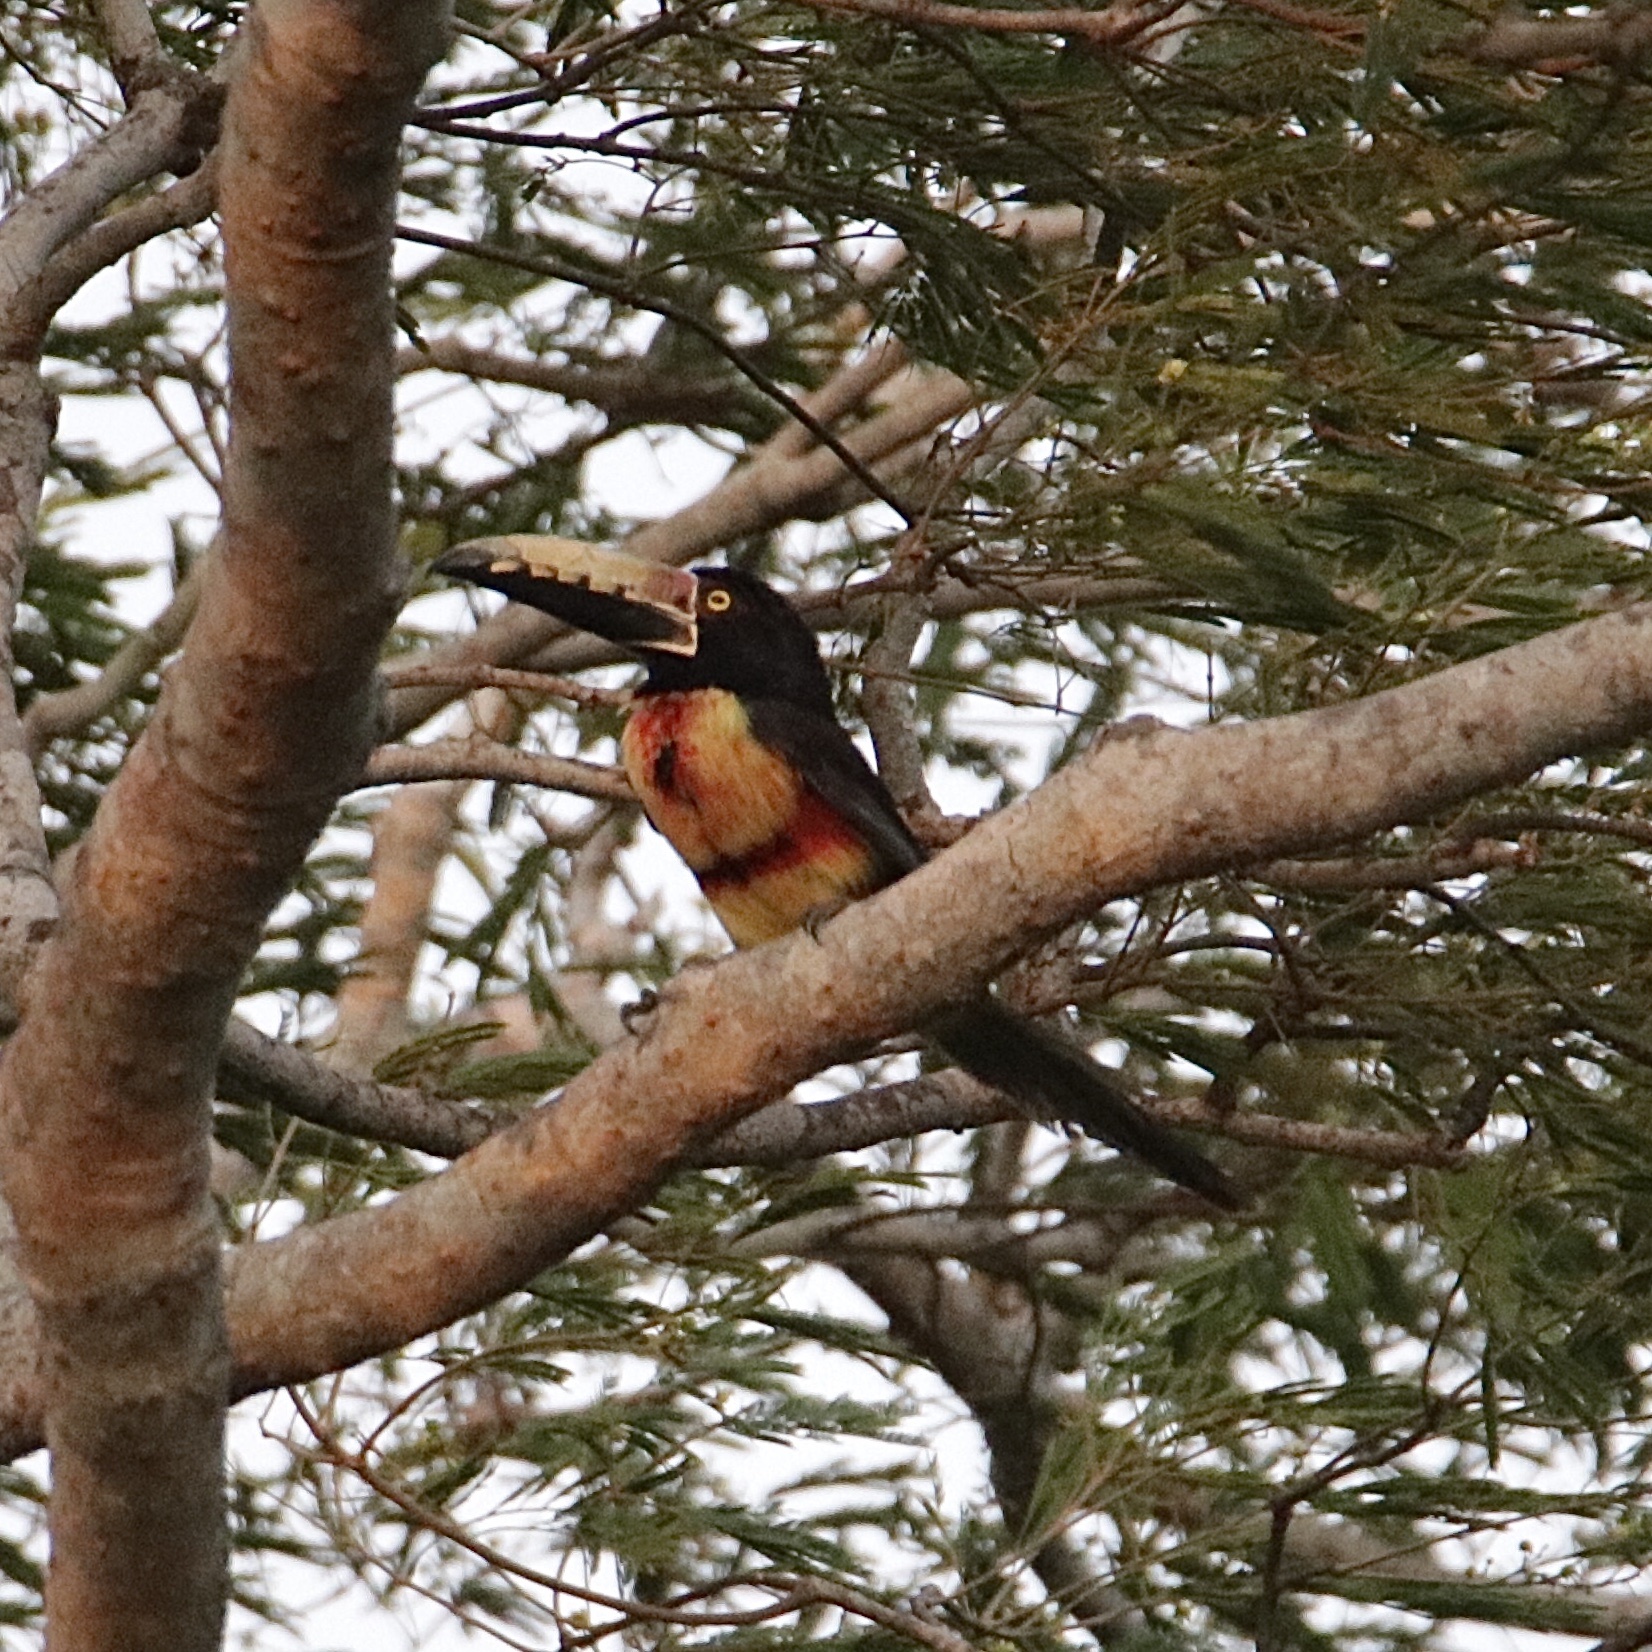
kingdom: Animalia
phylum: Chordata
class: Aves
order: Piciformes
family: Ramphastidae
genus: Pteroglossus
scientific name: Pteroglossus torquatus
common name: Collared aracari
